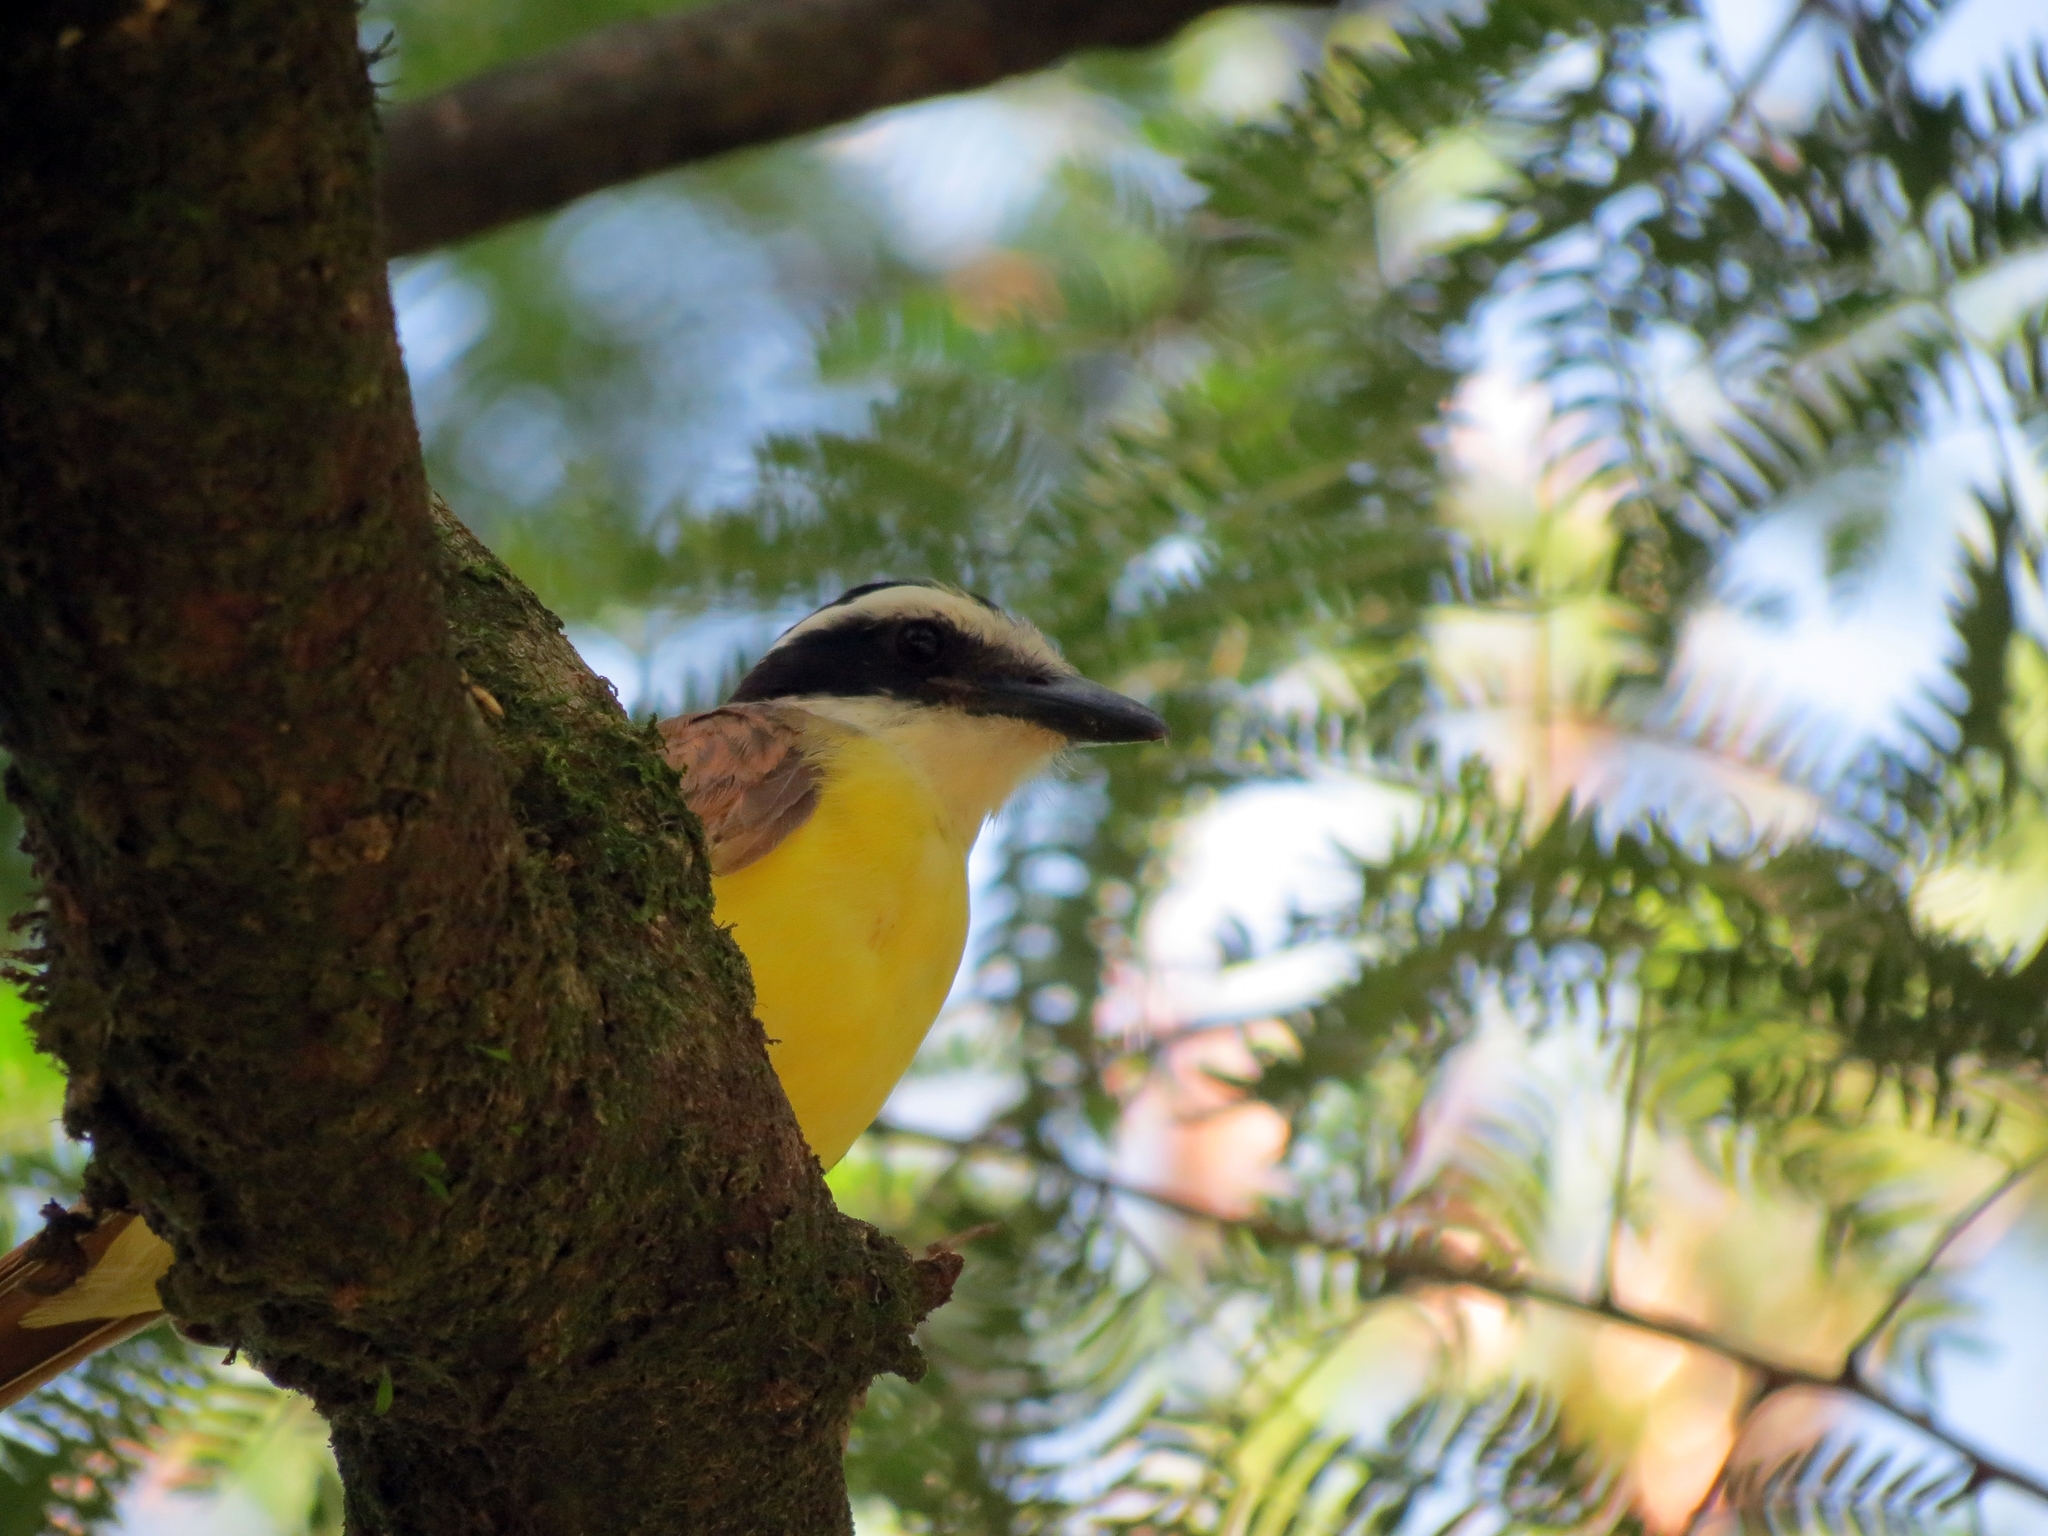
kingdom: Animalia
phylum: Chordata
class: Aves
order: Passeriformes
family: Tyrannidae
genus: Pitangus
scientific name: Pitangus sulphuratus
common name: Great kiskadee
